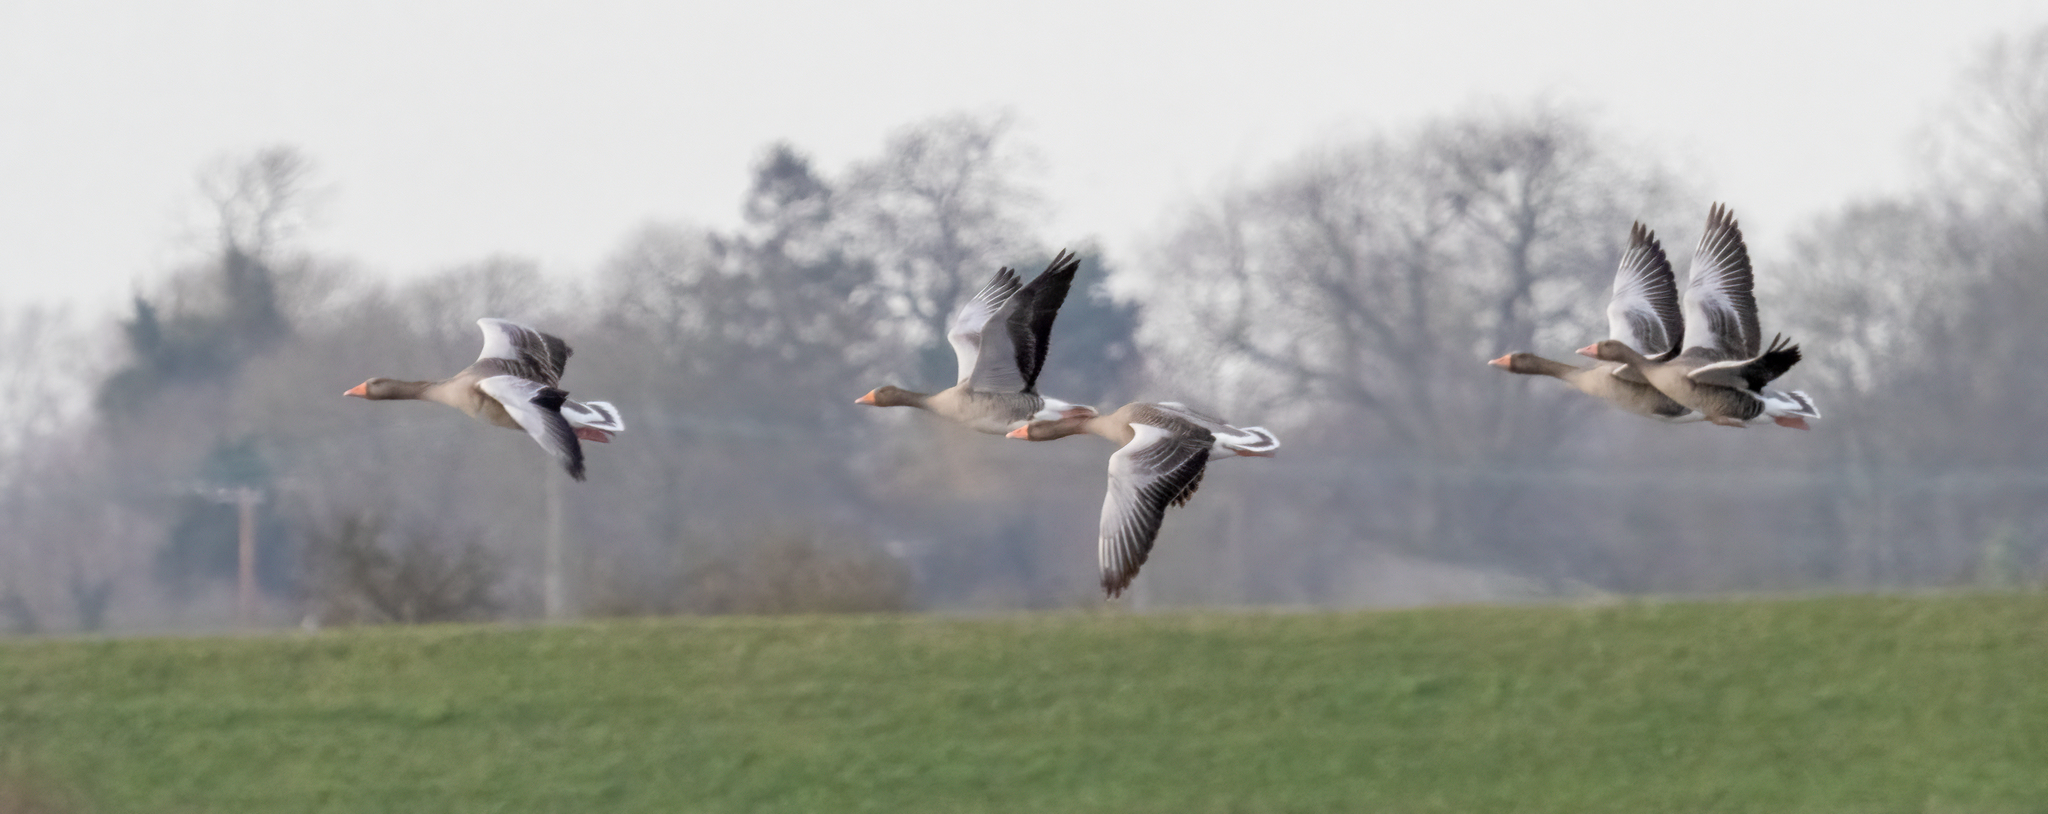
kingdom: Animalia
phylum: Chordata
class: Aves
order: Anseriformes
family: Anatidae
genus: Anser
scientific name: Anser anser
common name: Greylag goose
